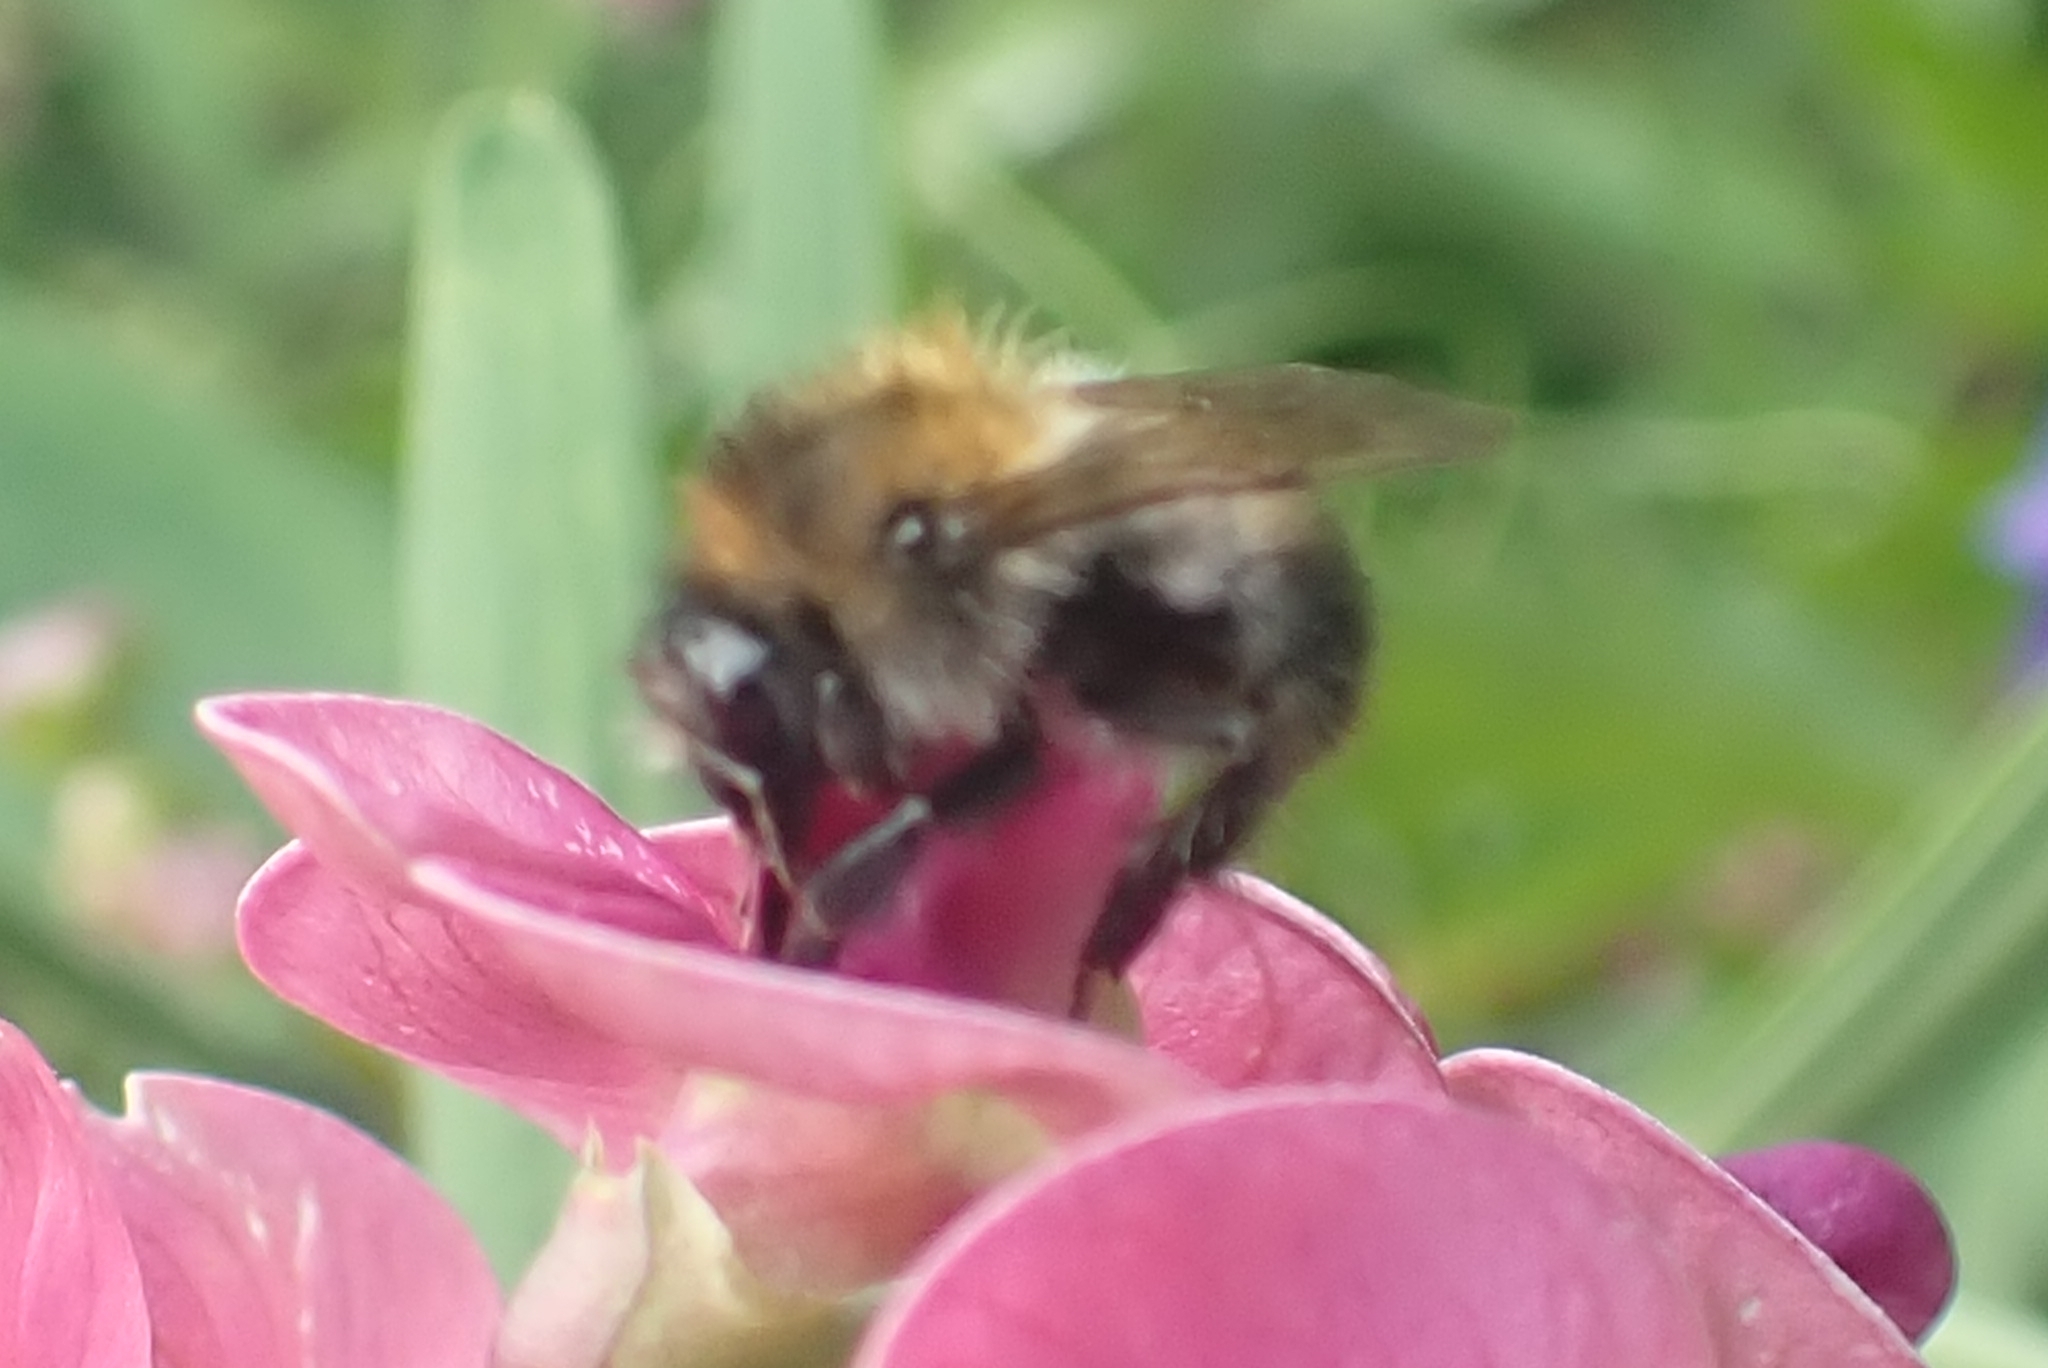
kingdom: Animalia
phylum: Arthropoda
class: Insecta
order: Hymenoptera
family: Apidae
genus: Bombus
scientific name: Bombus pascuorum
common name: Common carder bee
